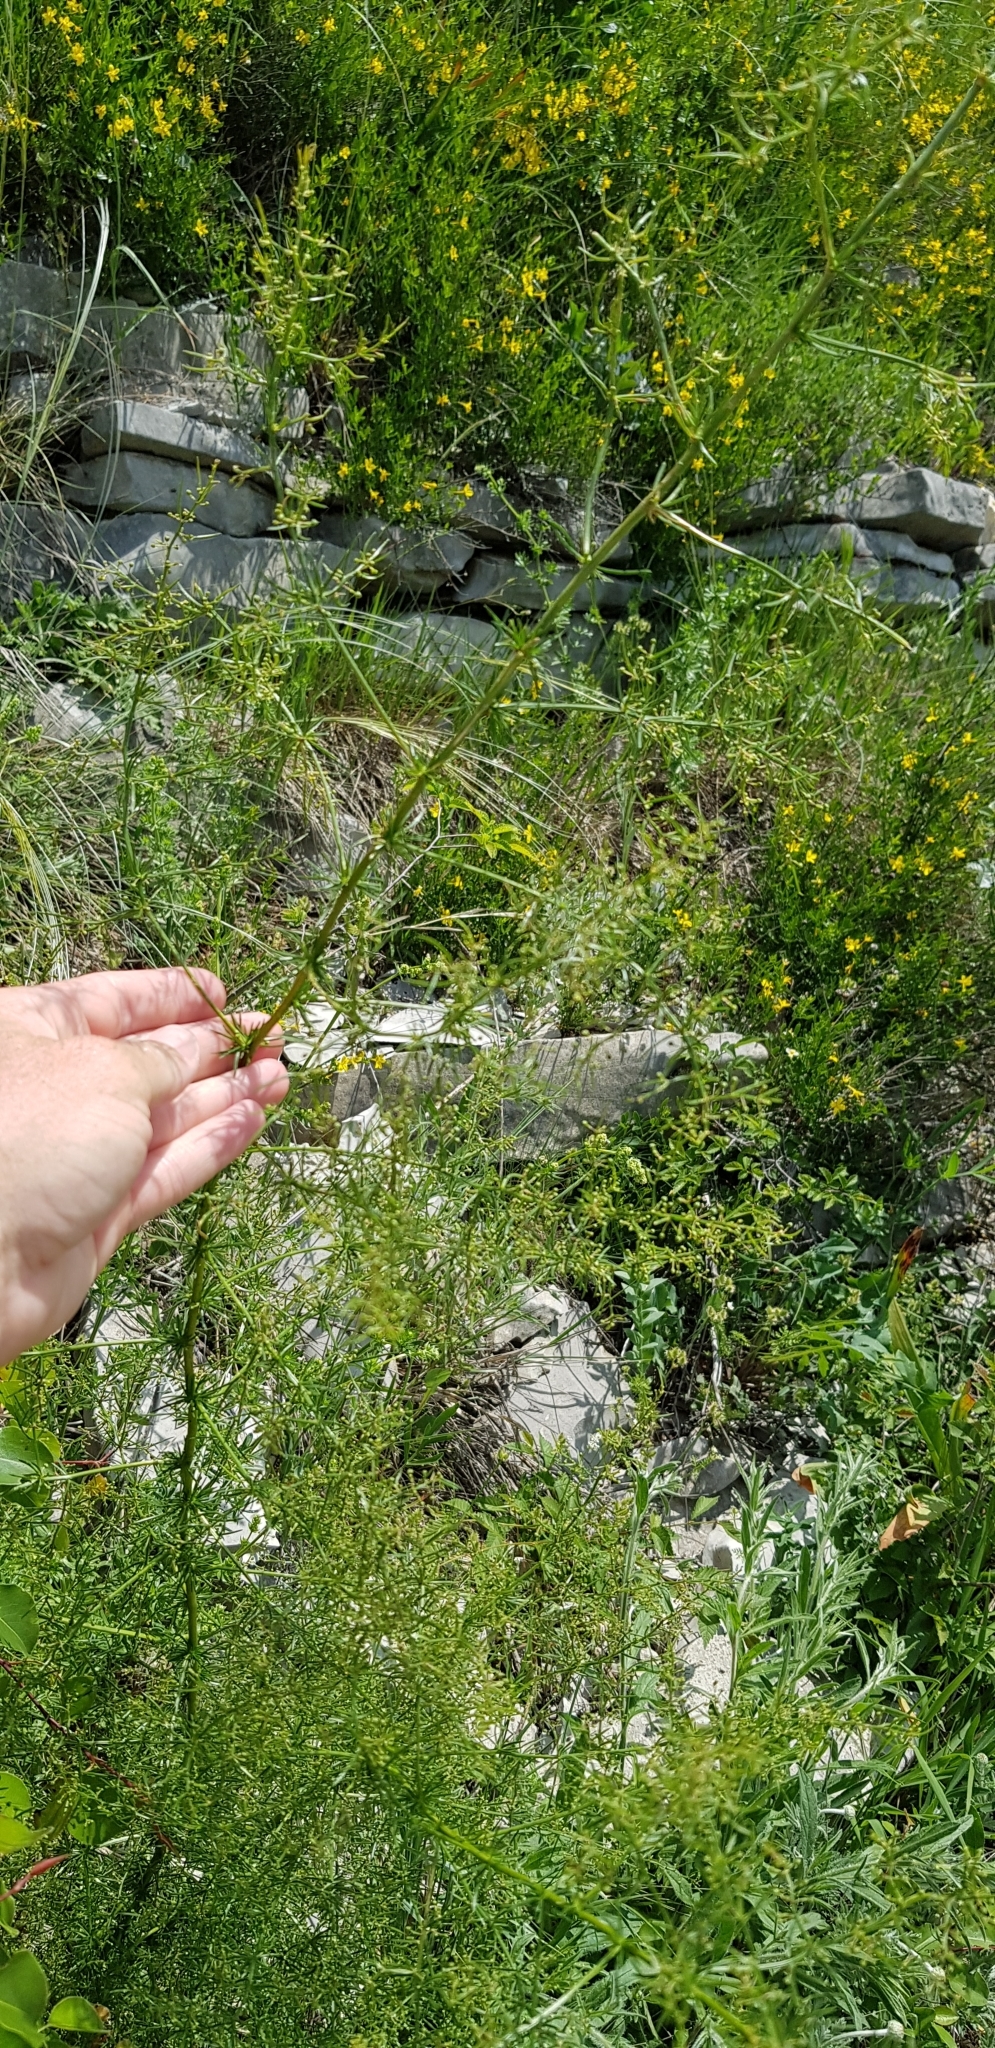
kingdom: Plantae
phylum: Tracheophyta
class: Liliopsida
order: Asparagales
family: Asparagaceae
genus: Asparagus
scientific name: Asparagus verticillatus
